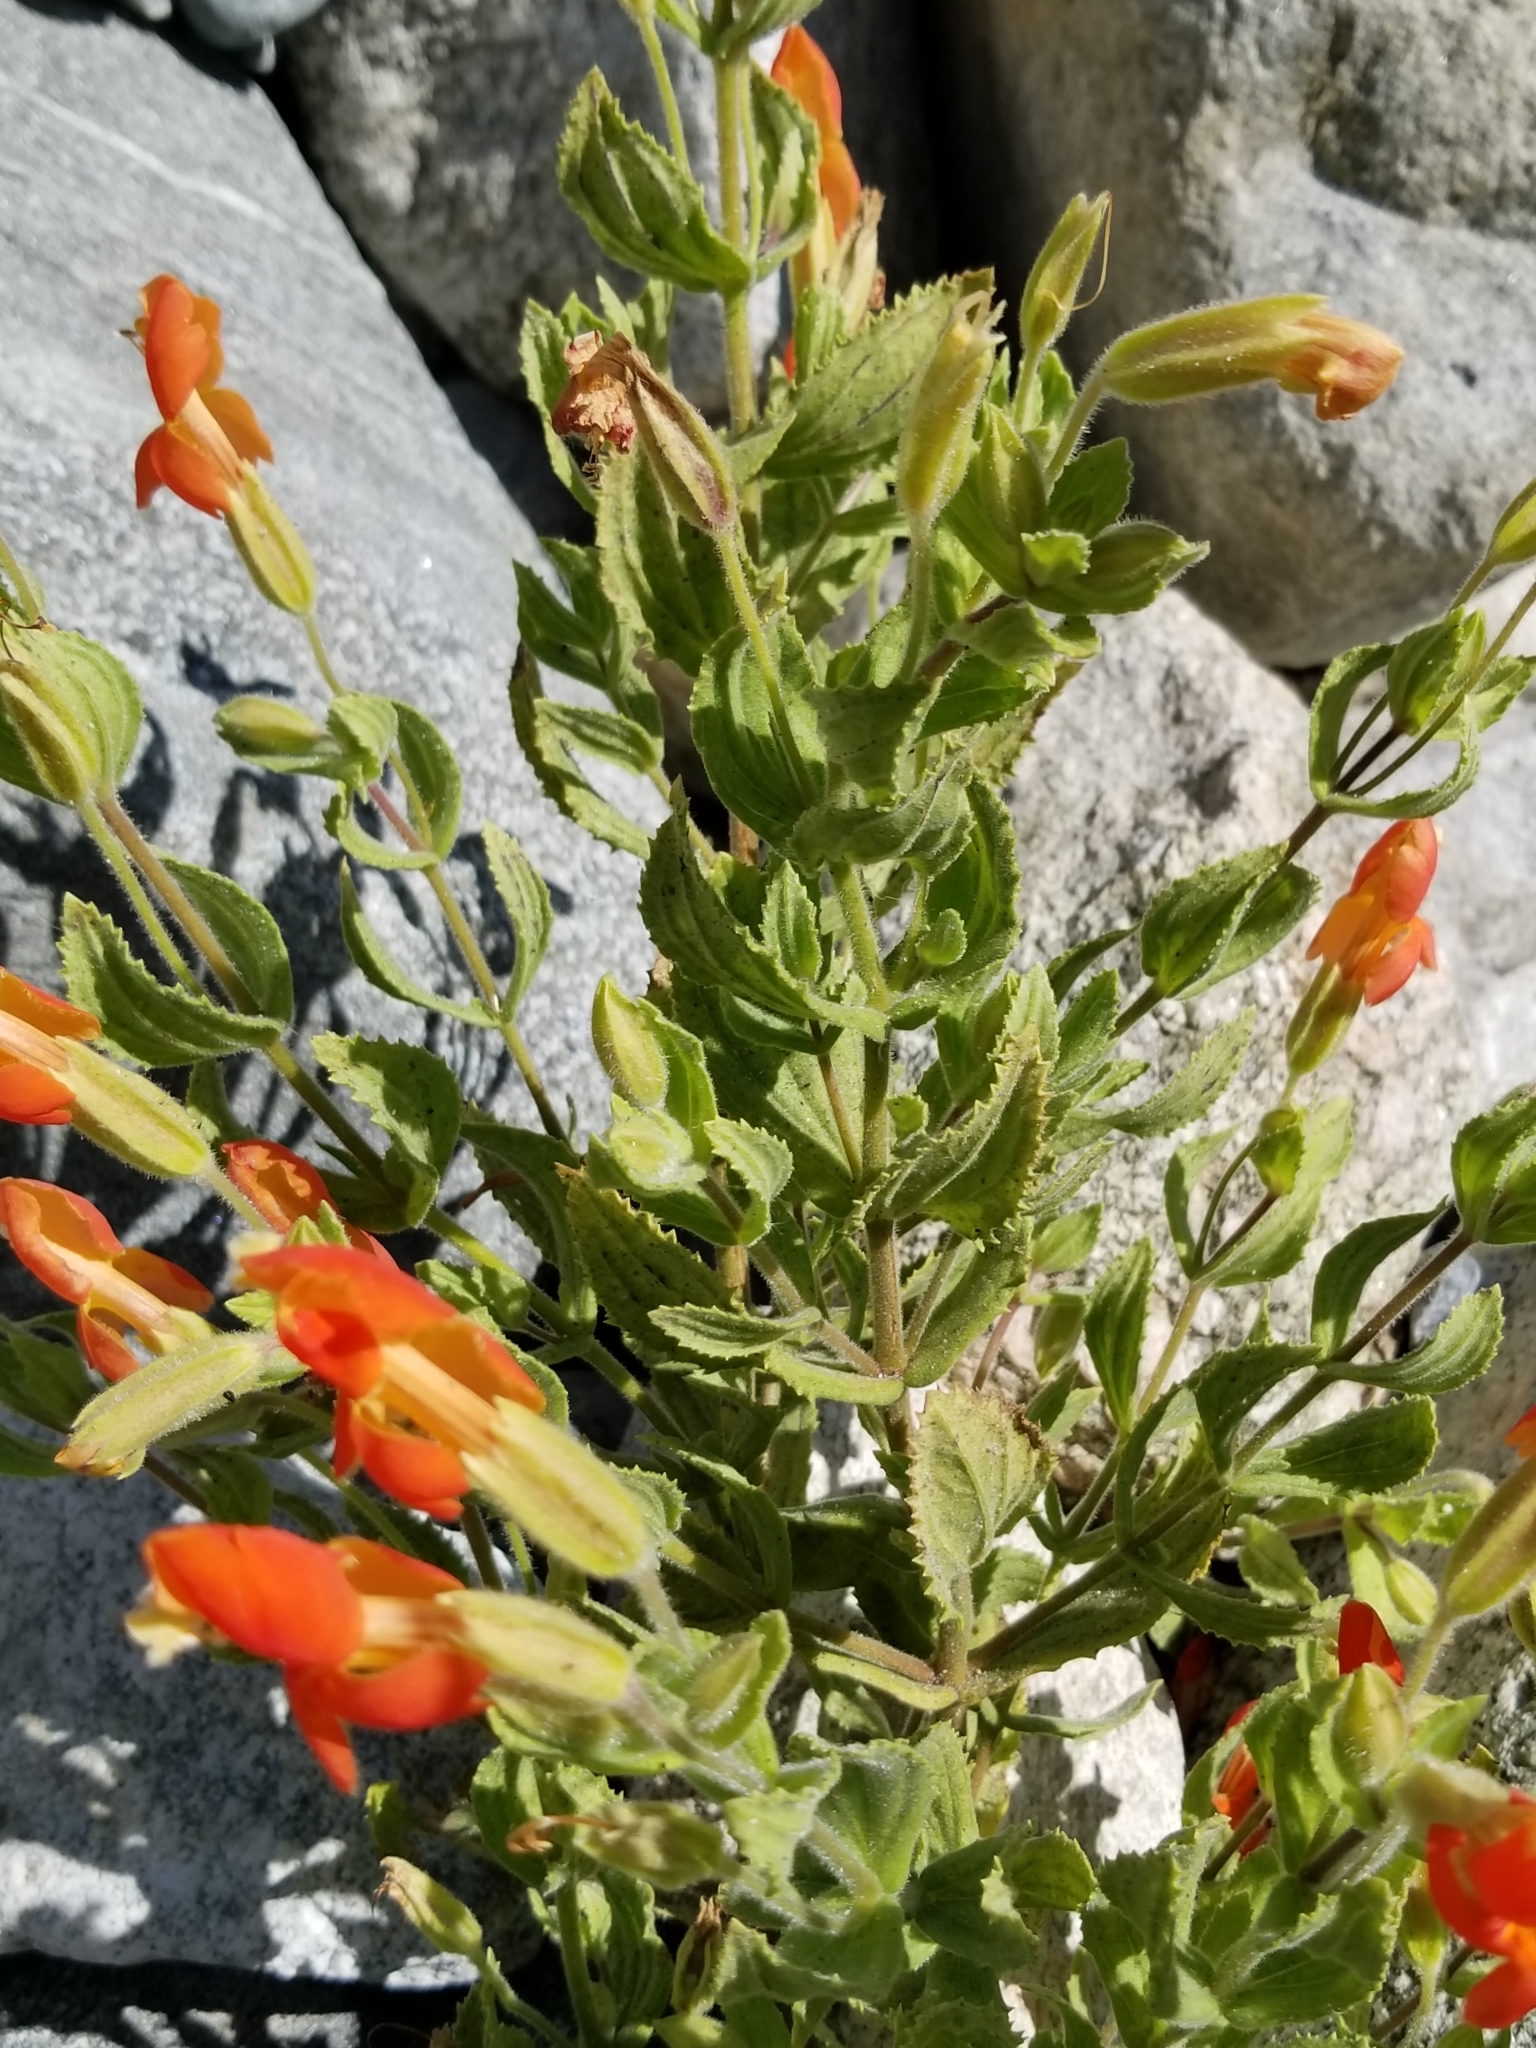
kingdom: Plantae
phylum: Tracheophyta
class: Magnoliopsida
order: Lamiales
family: Phrymaceae
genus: Erythranthe
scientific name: Erythranthe cardinalis
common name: Scarlet monkey-flower
